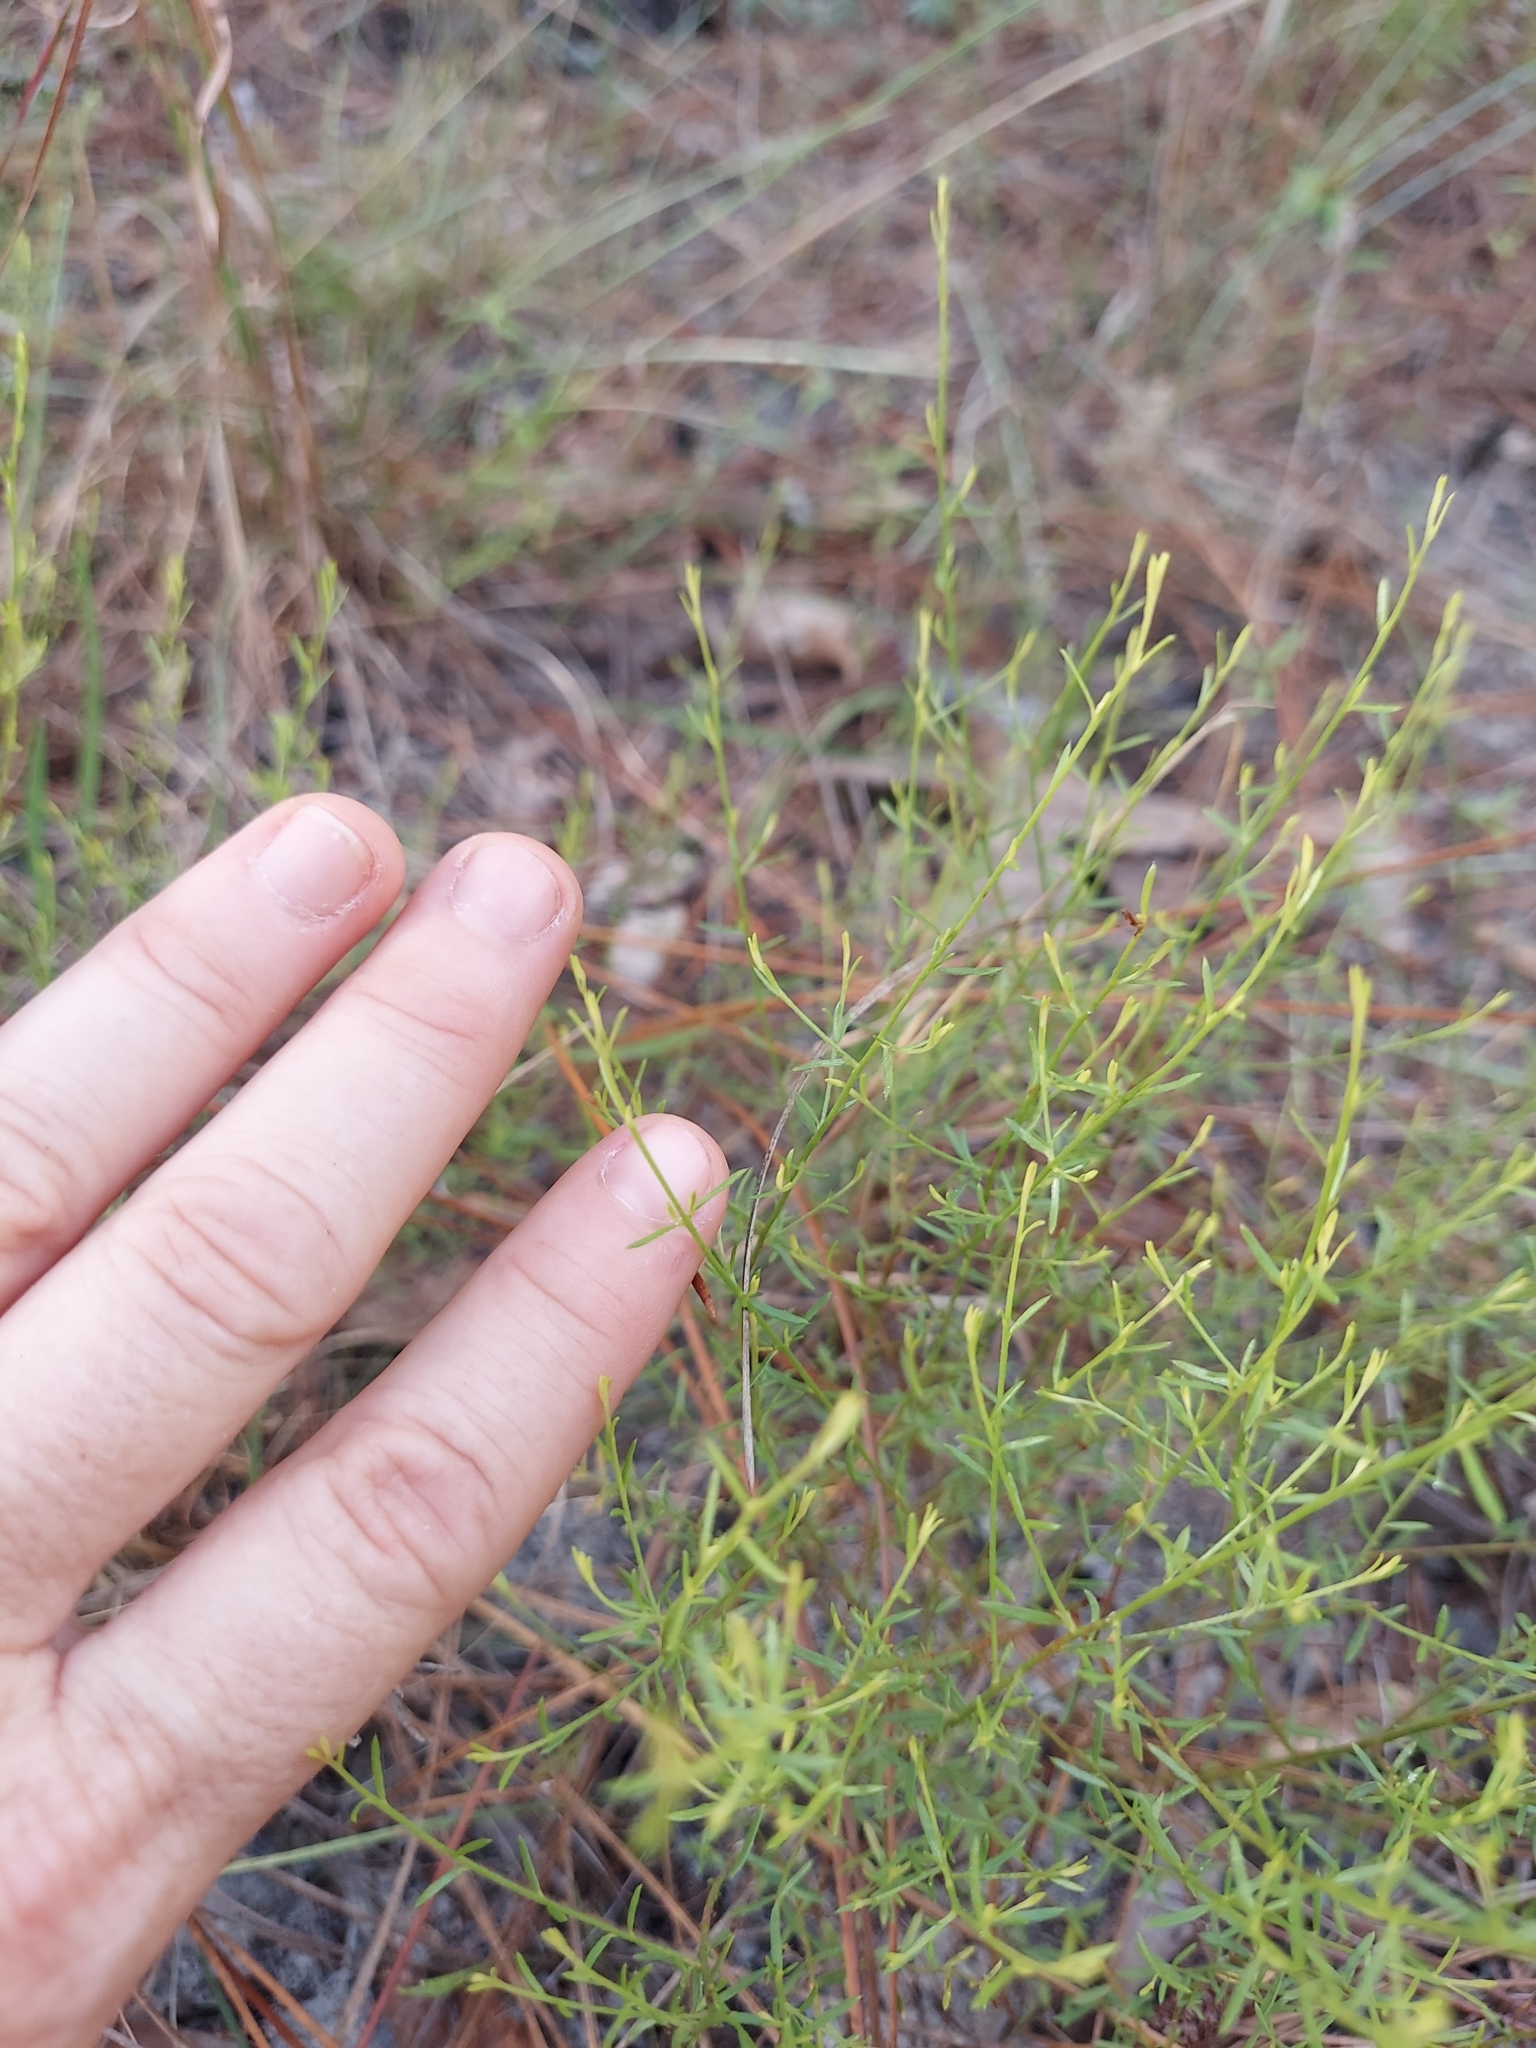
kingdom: Plantae
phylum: Tracheophyta
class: Magnoliopsida
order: Malvales
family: Cistaceae
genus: Lechea
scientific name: Lechea torreyi
